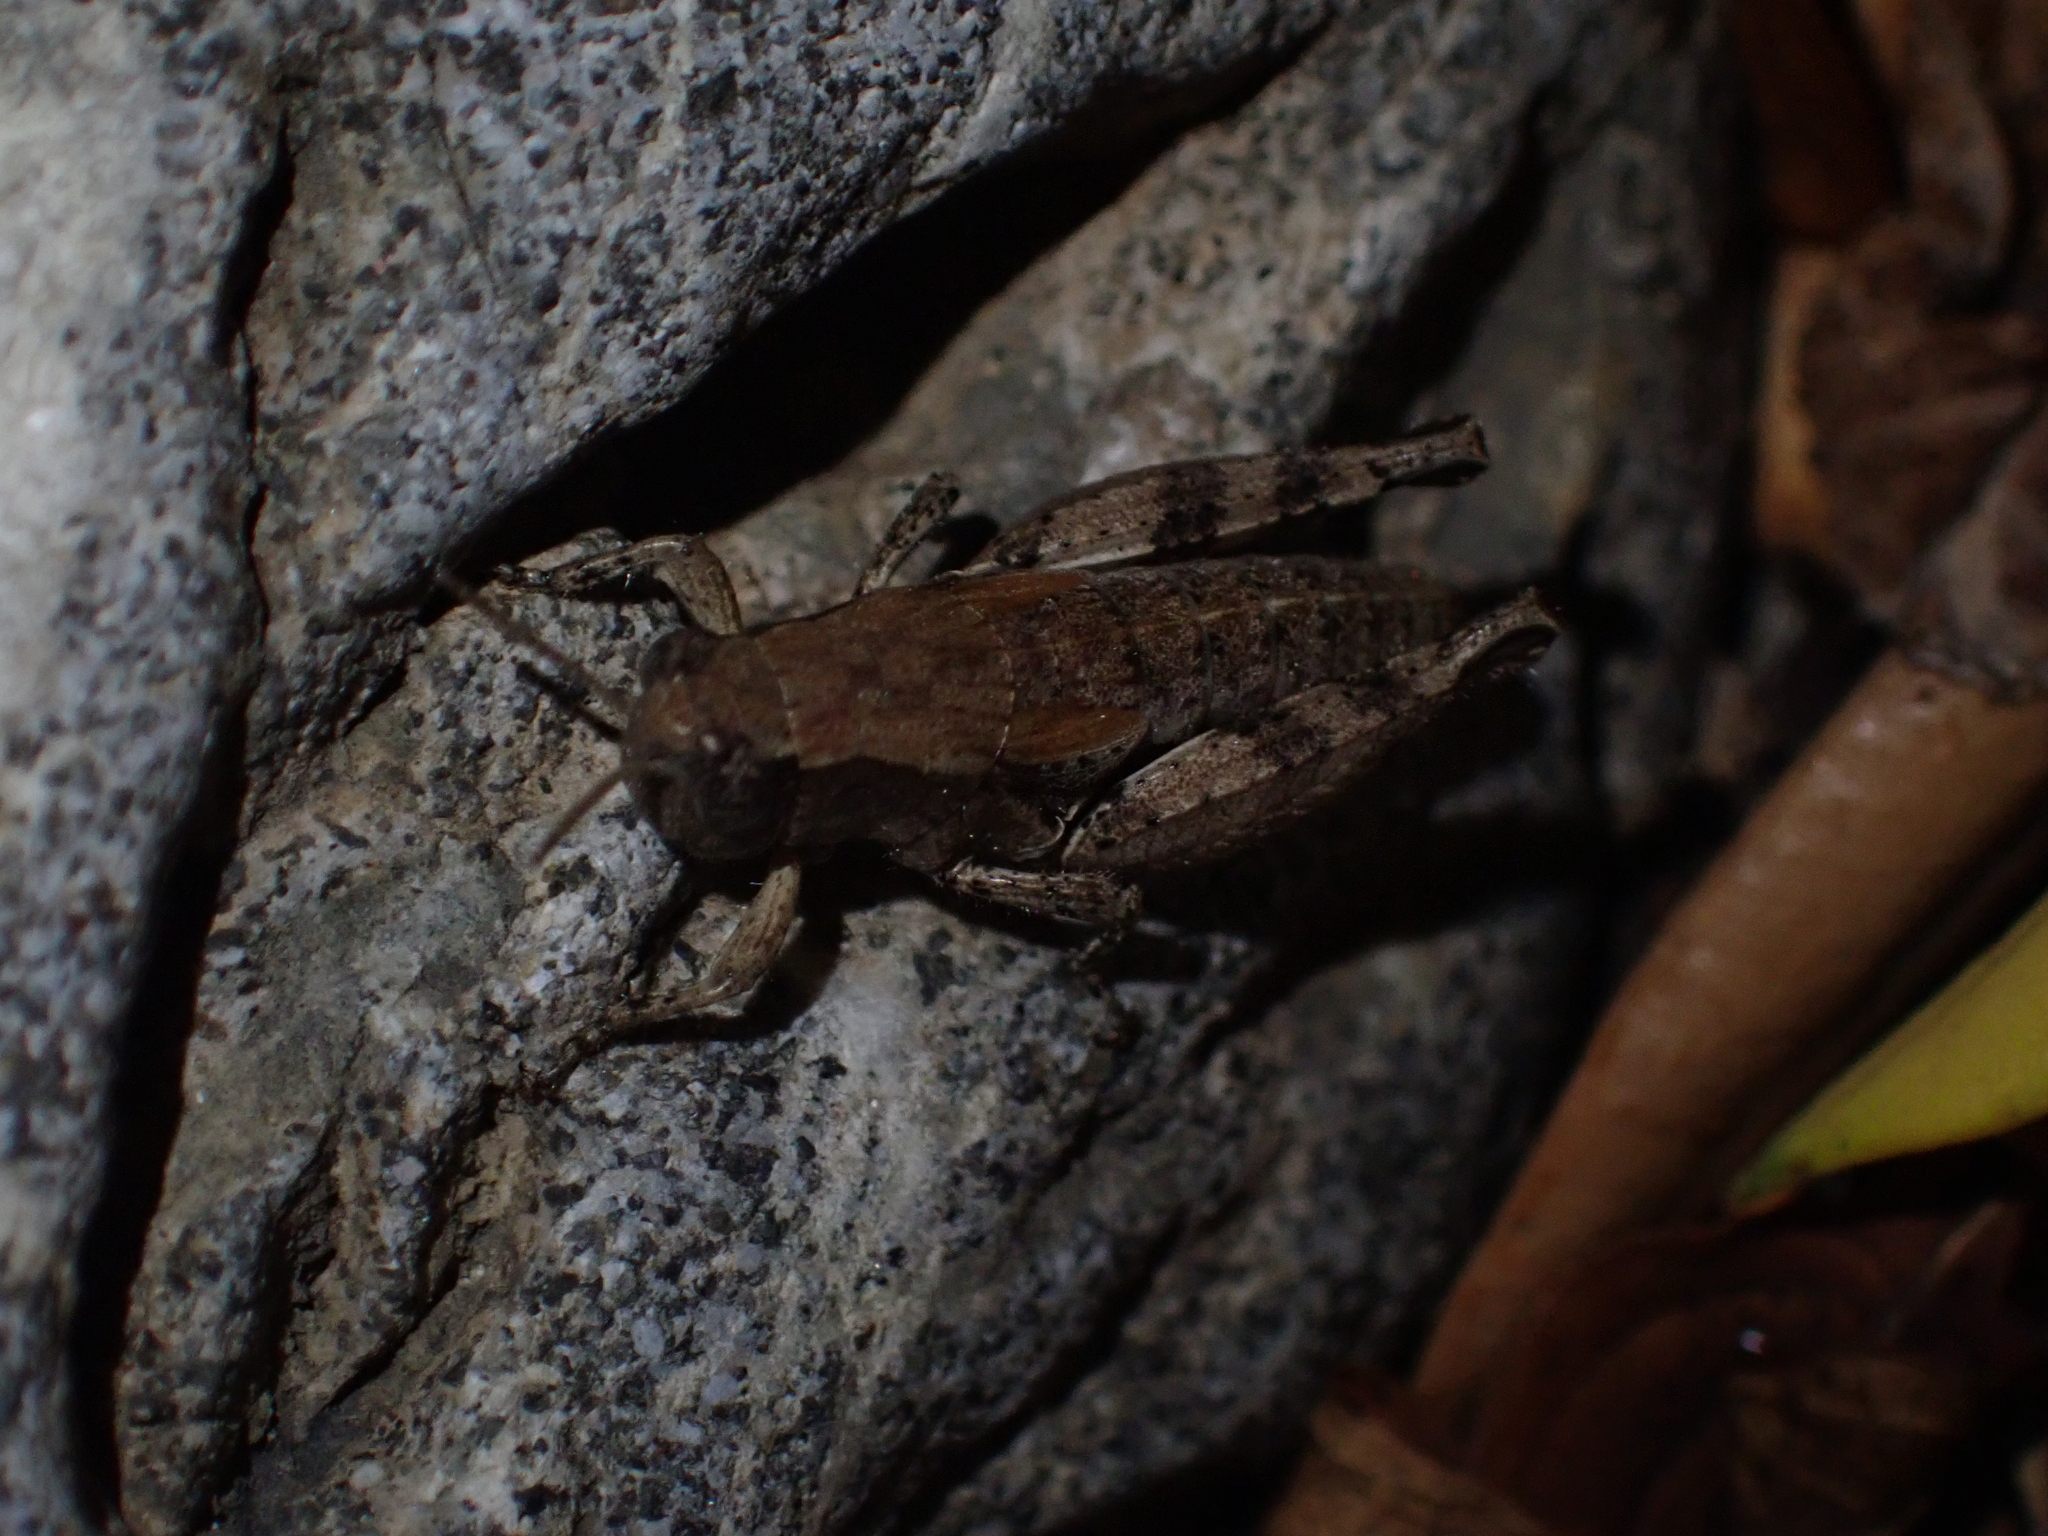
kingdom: Animalia
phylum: Arthropoda
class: Insecta
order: Orthoptera
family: Acrididae
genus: Pezotettix
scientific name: Pezotettix giornae
